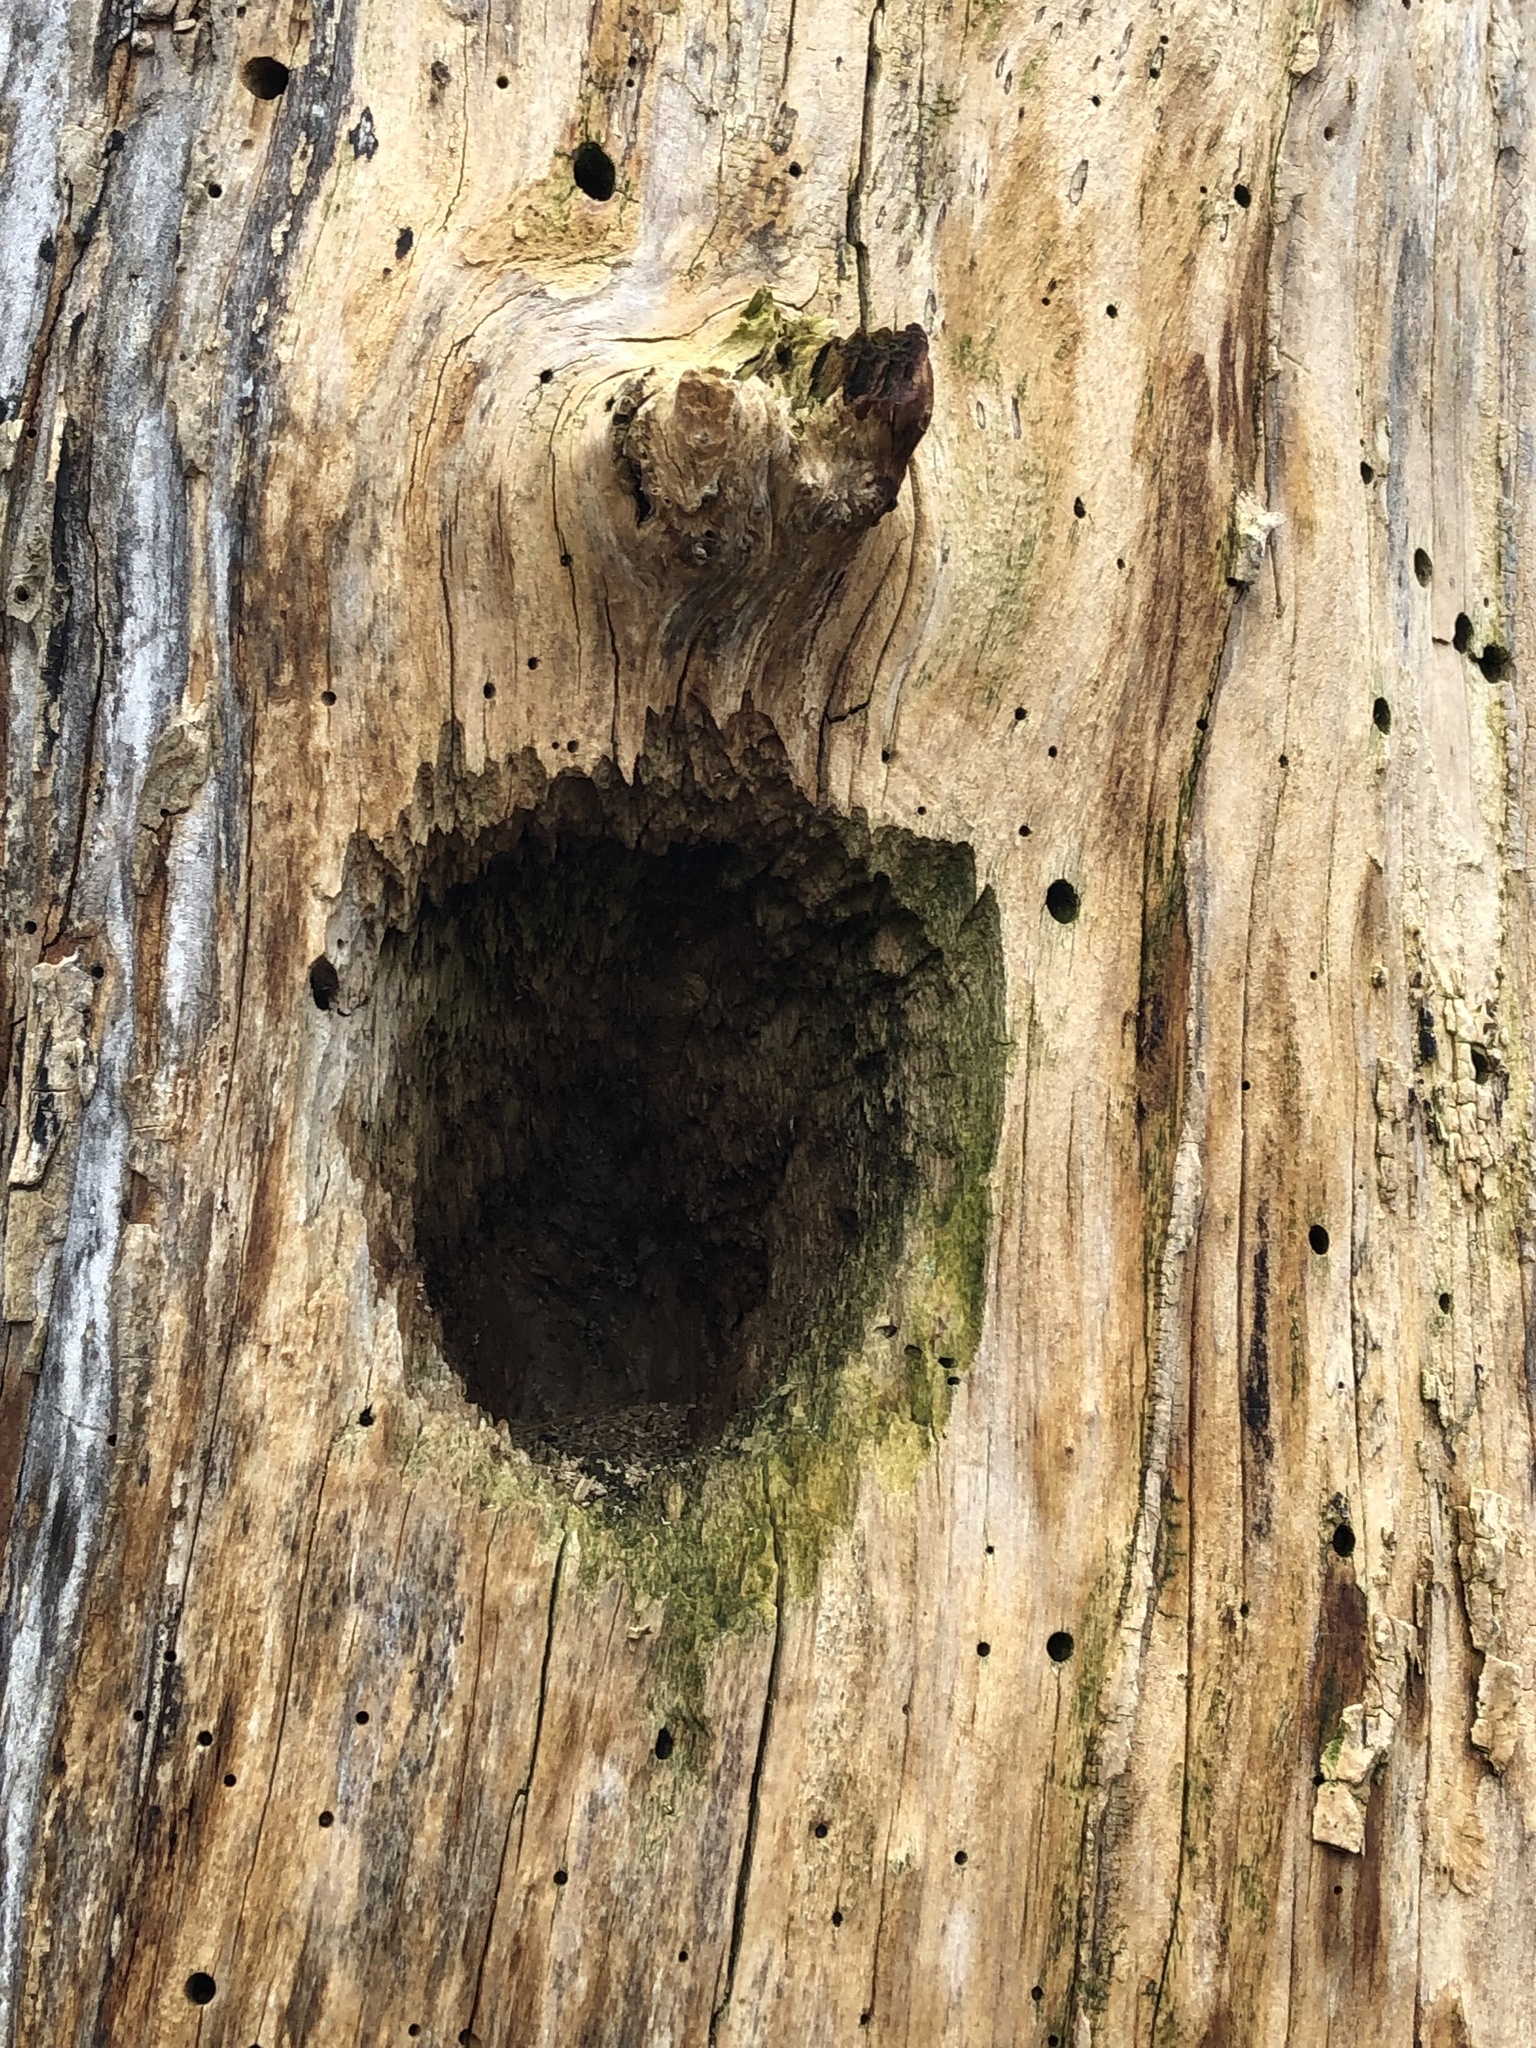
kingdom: Animalia
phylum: Chordata
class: Aves
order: Piciformes
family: Picidae
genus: Dryocopus
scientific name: Dryocopus pileatus
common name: Pileated woodpecker
